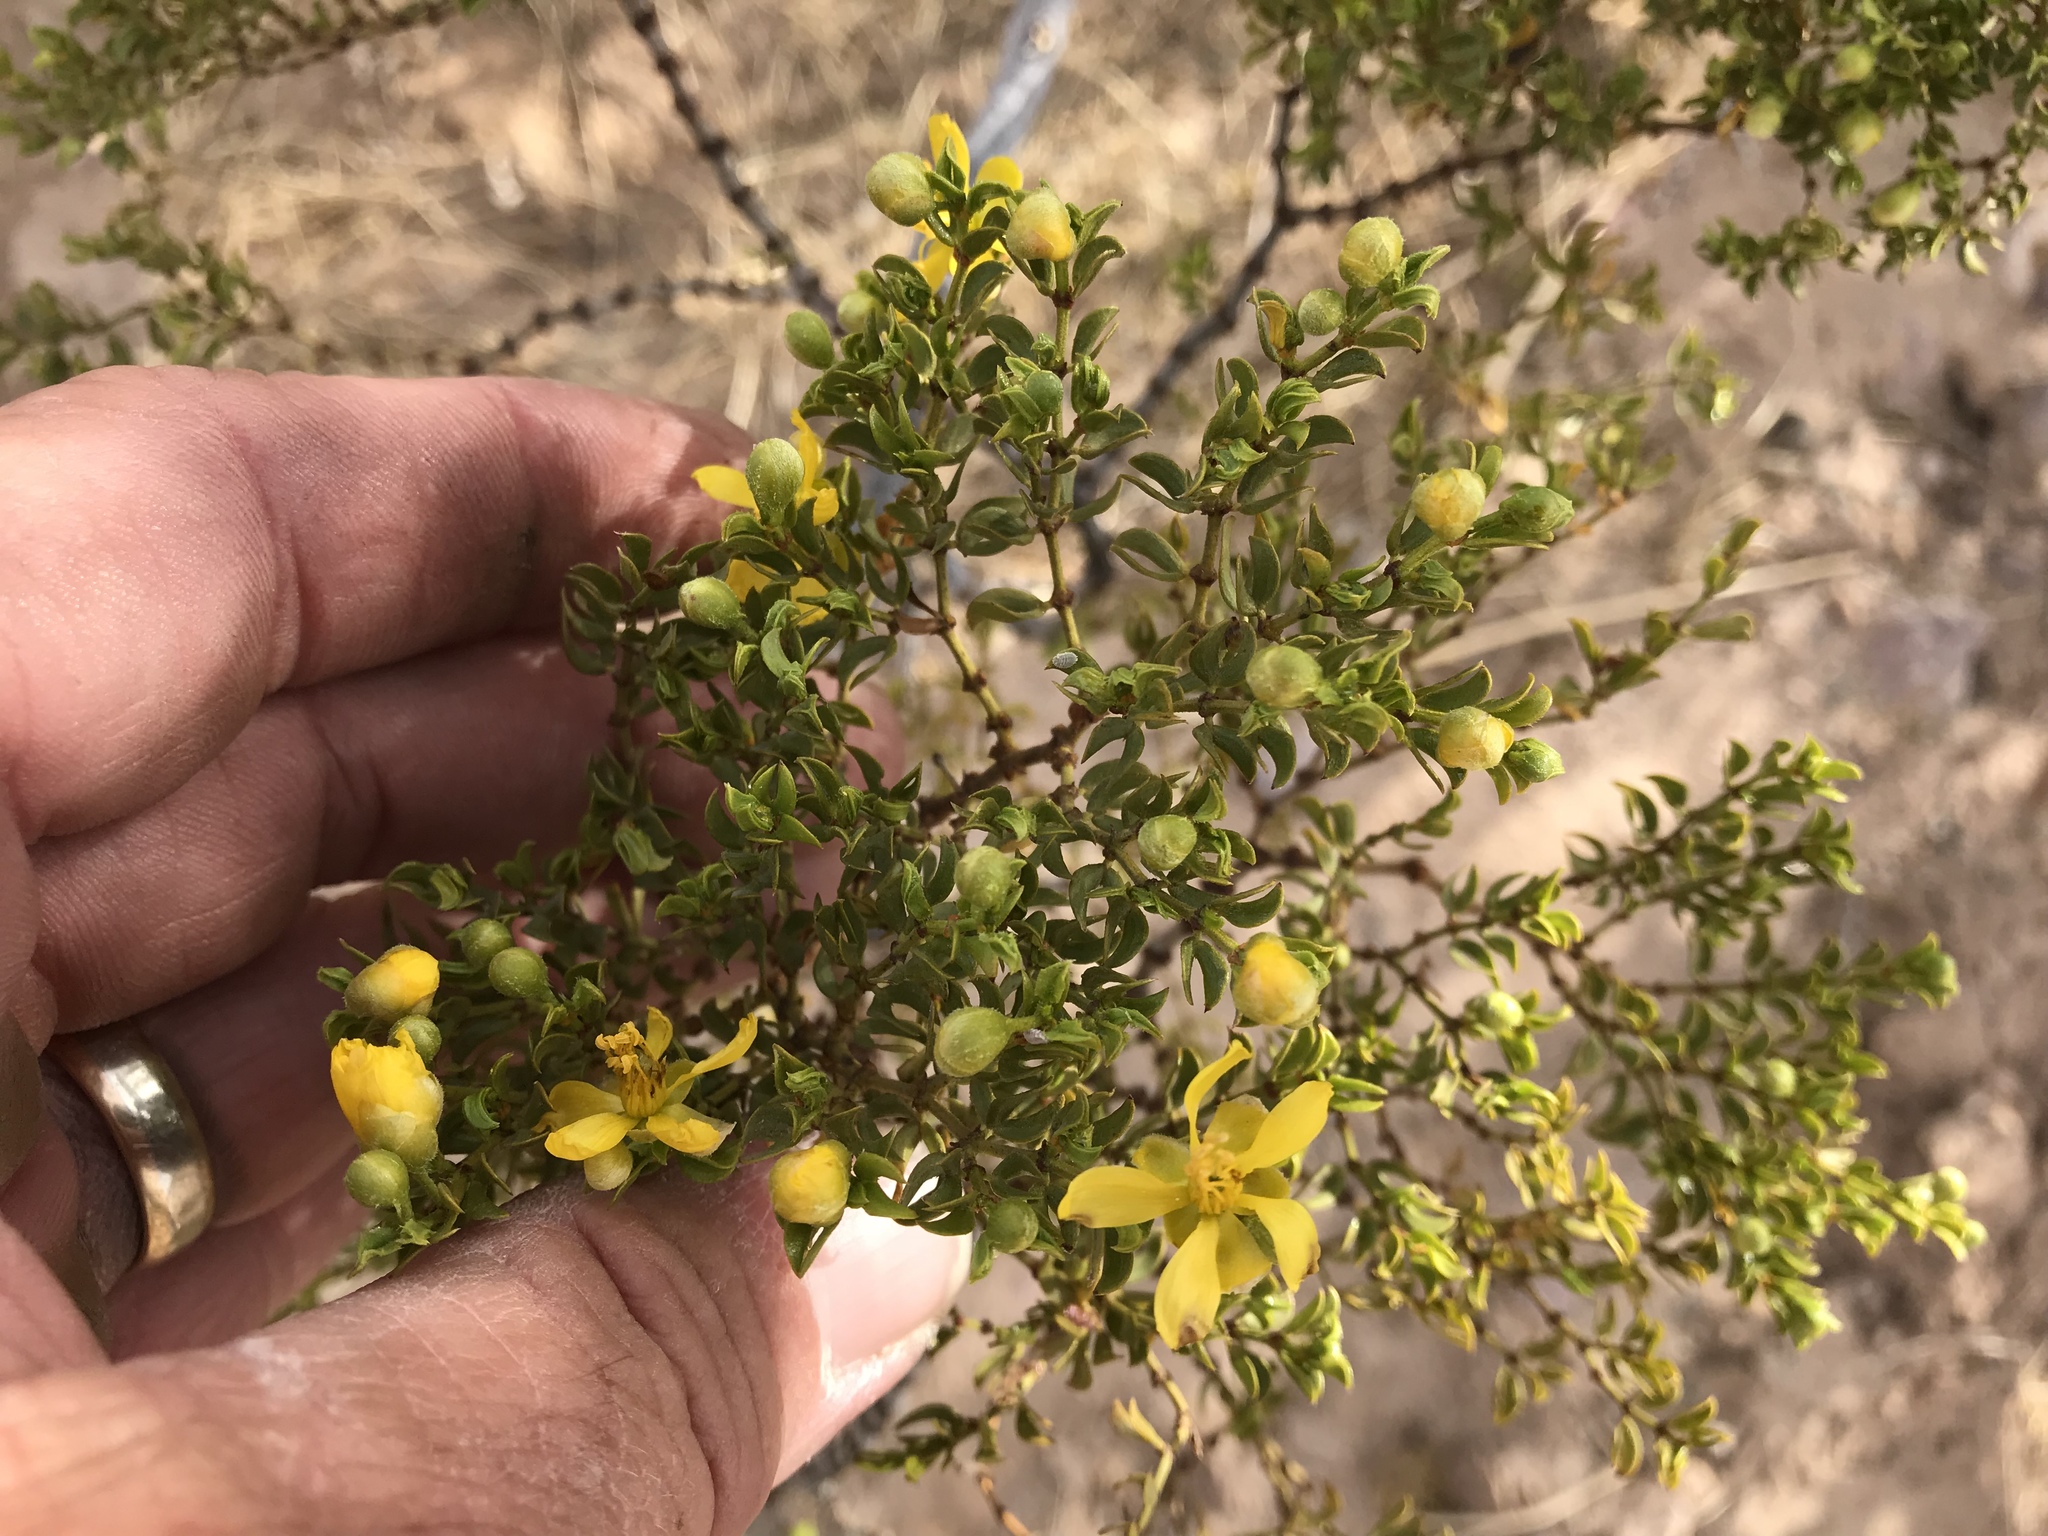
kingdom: Plantae
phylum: Tracheophyta
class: Magnoliopsida
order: Zygophyllales
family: Zygophyllaceae
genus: Larrea
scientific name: Larrea tridentata
